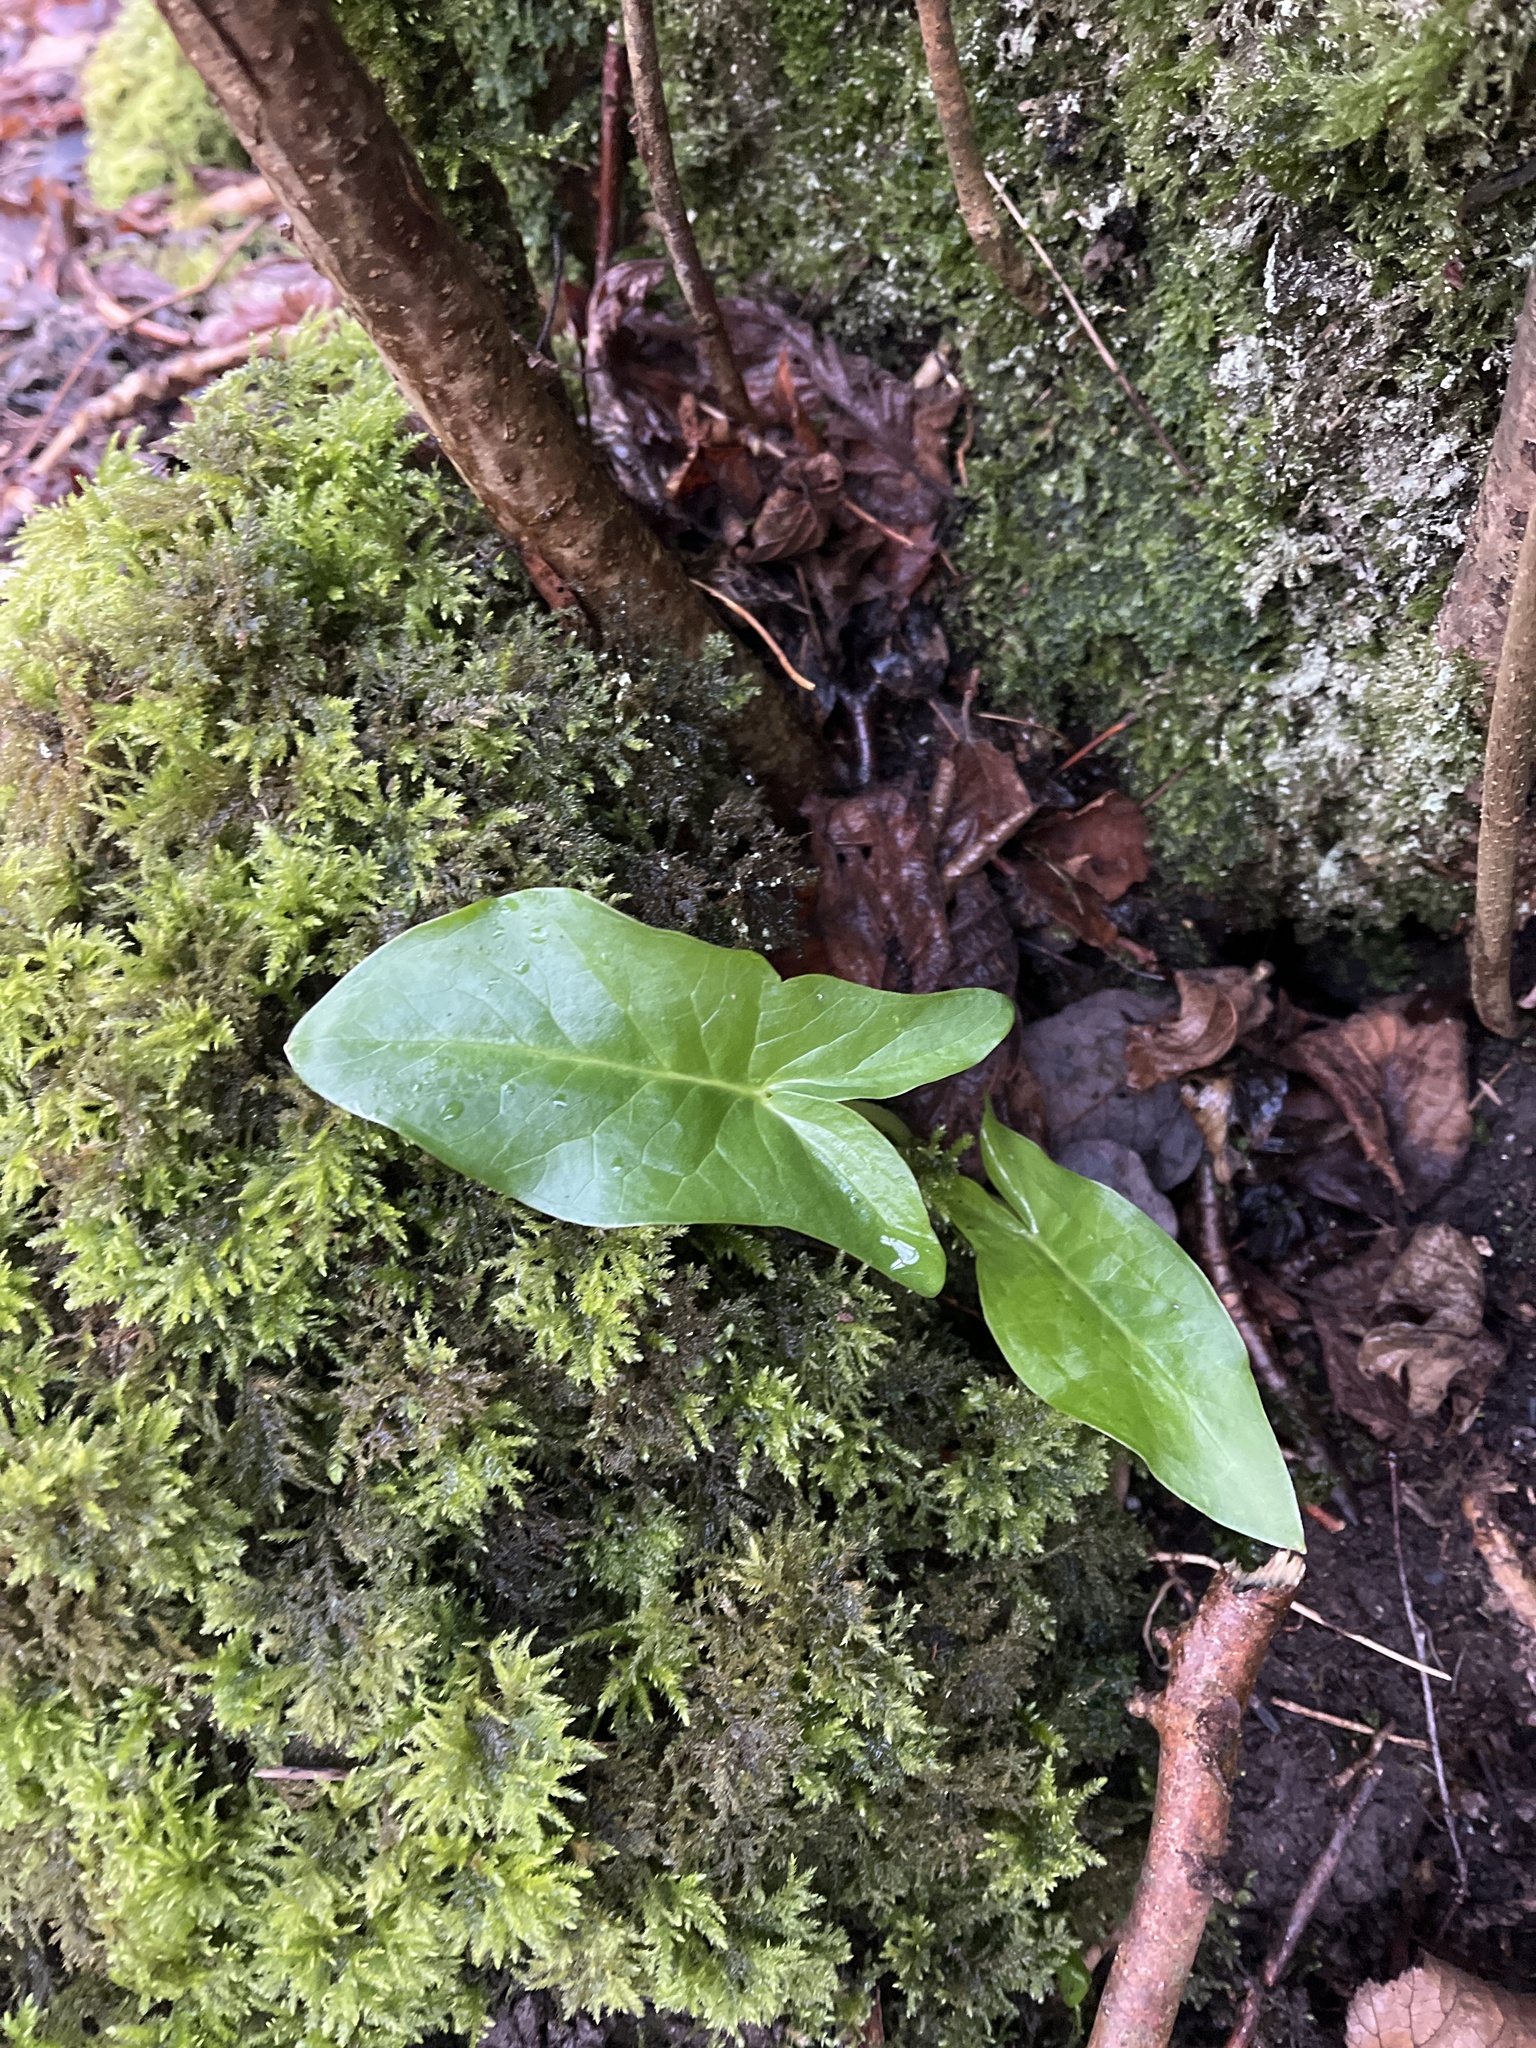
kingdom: Plantae
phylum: Tracheophyta
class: Liliopsida
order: Alismatales
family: Araceae
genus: Arum
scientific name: Arum maculatum
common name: Lords-and-ladies
